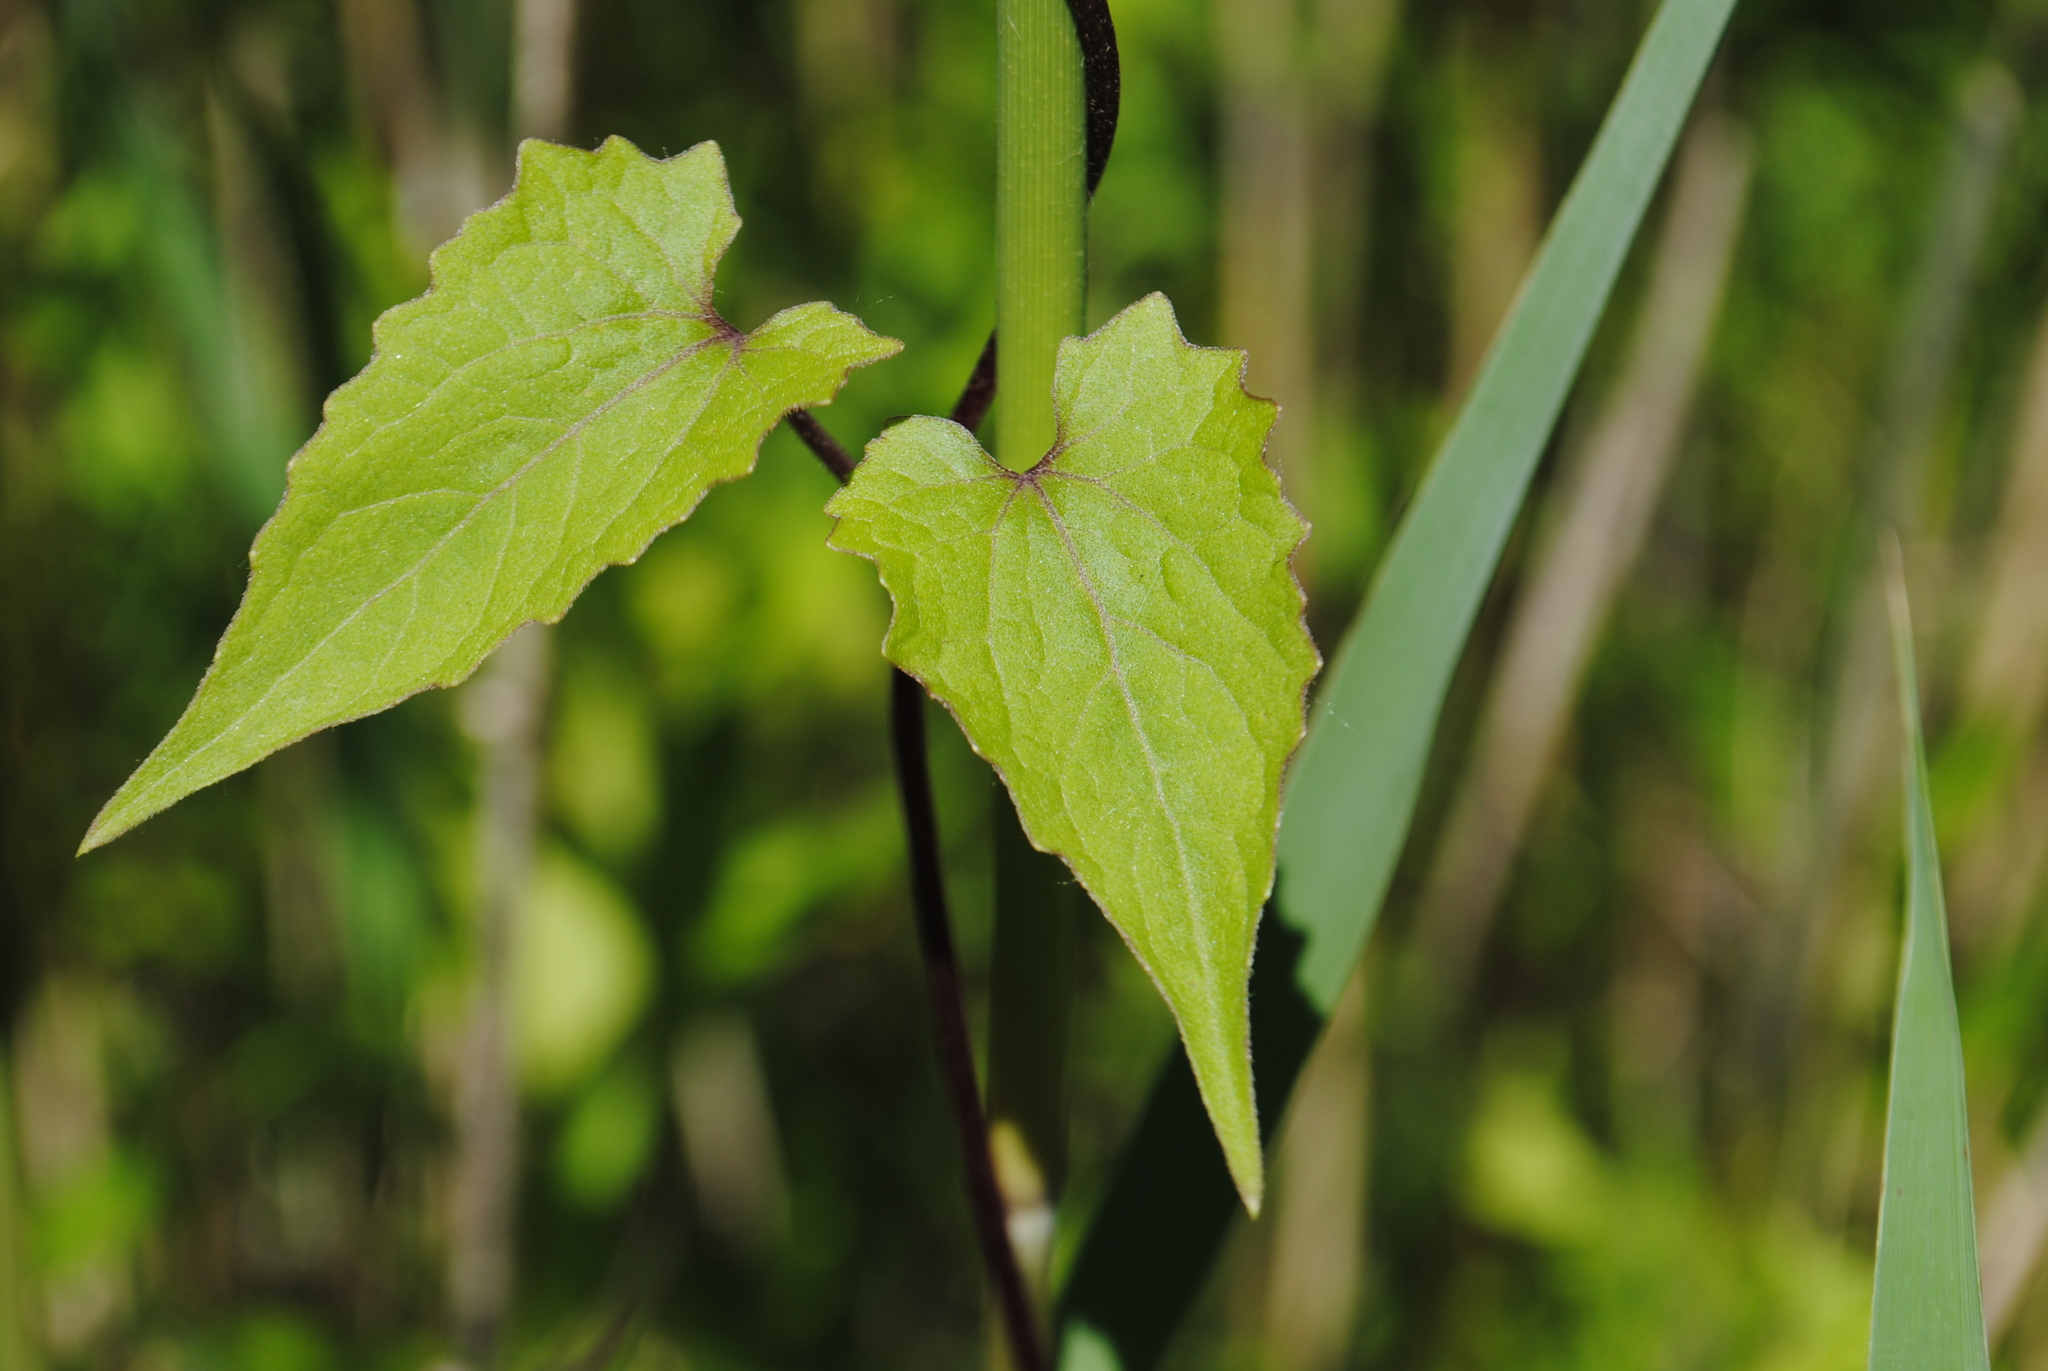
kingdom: Plantae
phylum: Tracheophyta
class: Magnoliopsida
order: Asterales
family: Asteraceae
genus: Mikania
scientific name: Mikania scandens
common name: Climbing hempvine
